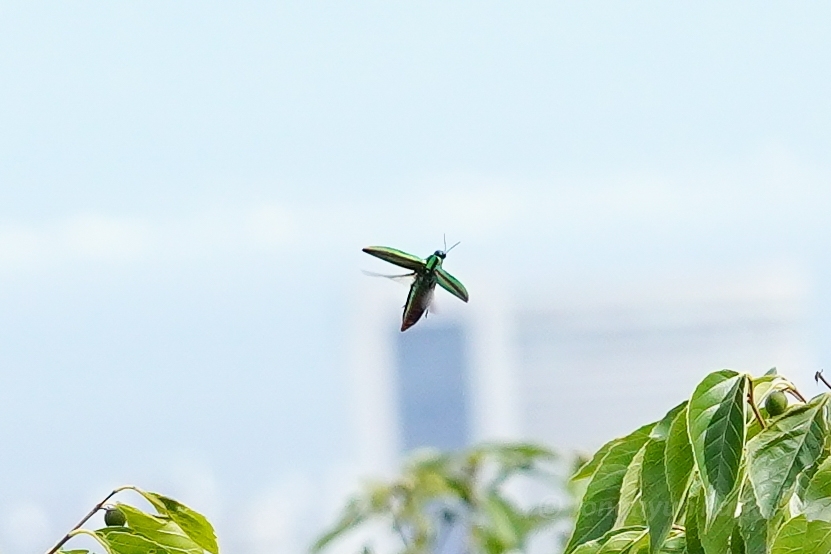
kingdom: Animalia
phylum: Arthropoda
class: Insecta
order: Coleoptera
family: Buprestidae
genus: Chrysochroa
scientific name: Chrysochroa fulgidissima
